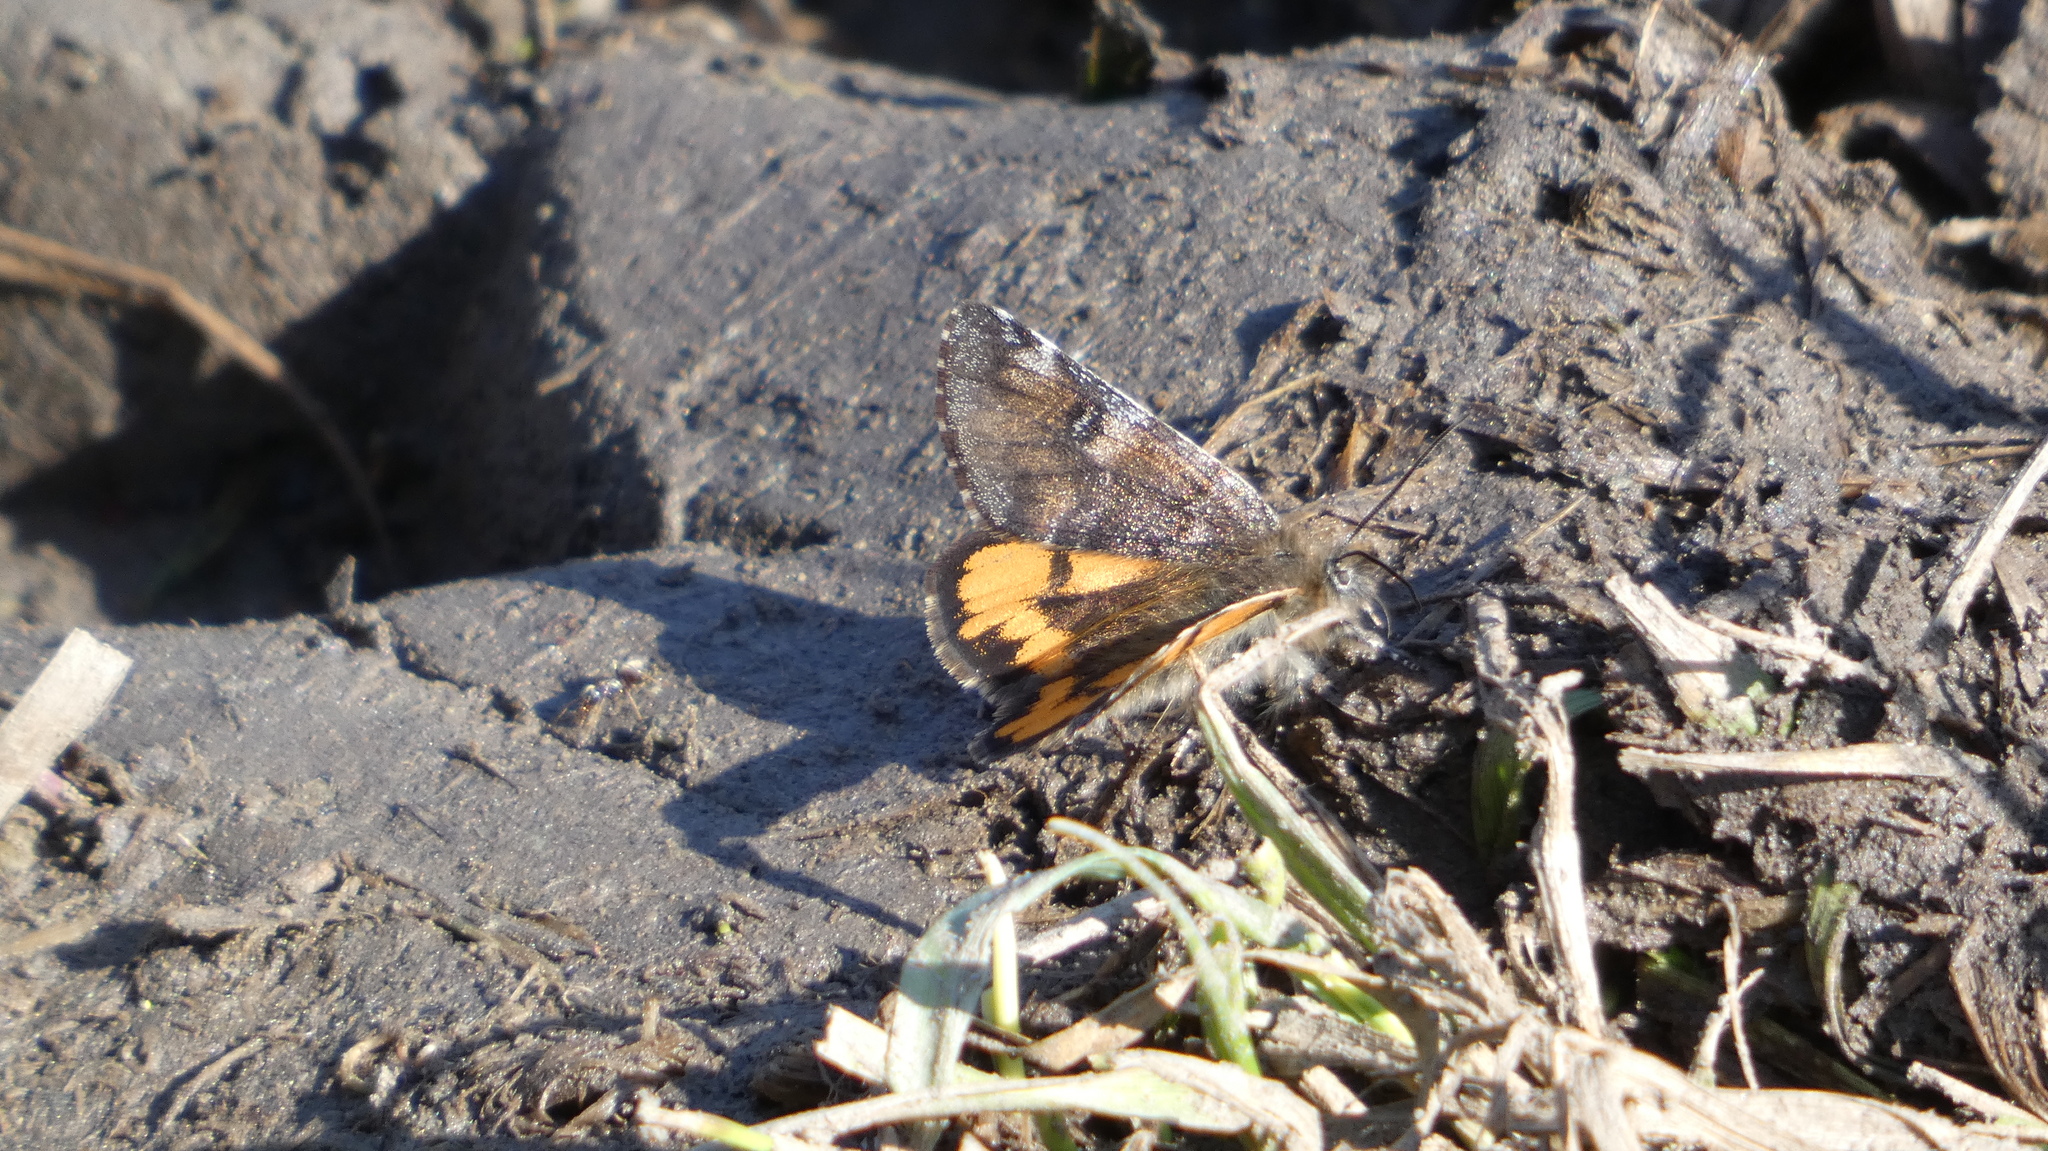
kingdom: Animalia
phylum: Arthropoda
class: Insecta
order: Lepidoptera
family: Geometridae
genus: Archiearis
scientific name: Archiearis parthenias
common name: Orange underwing
